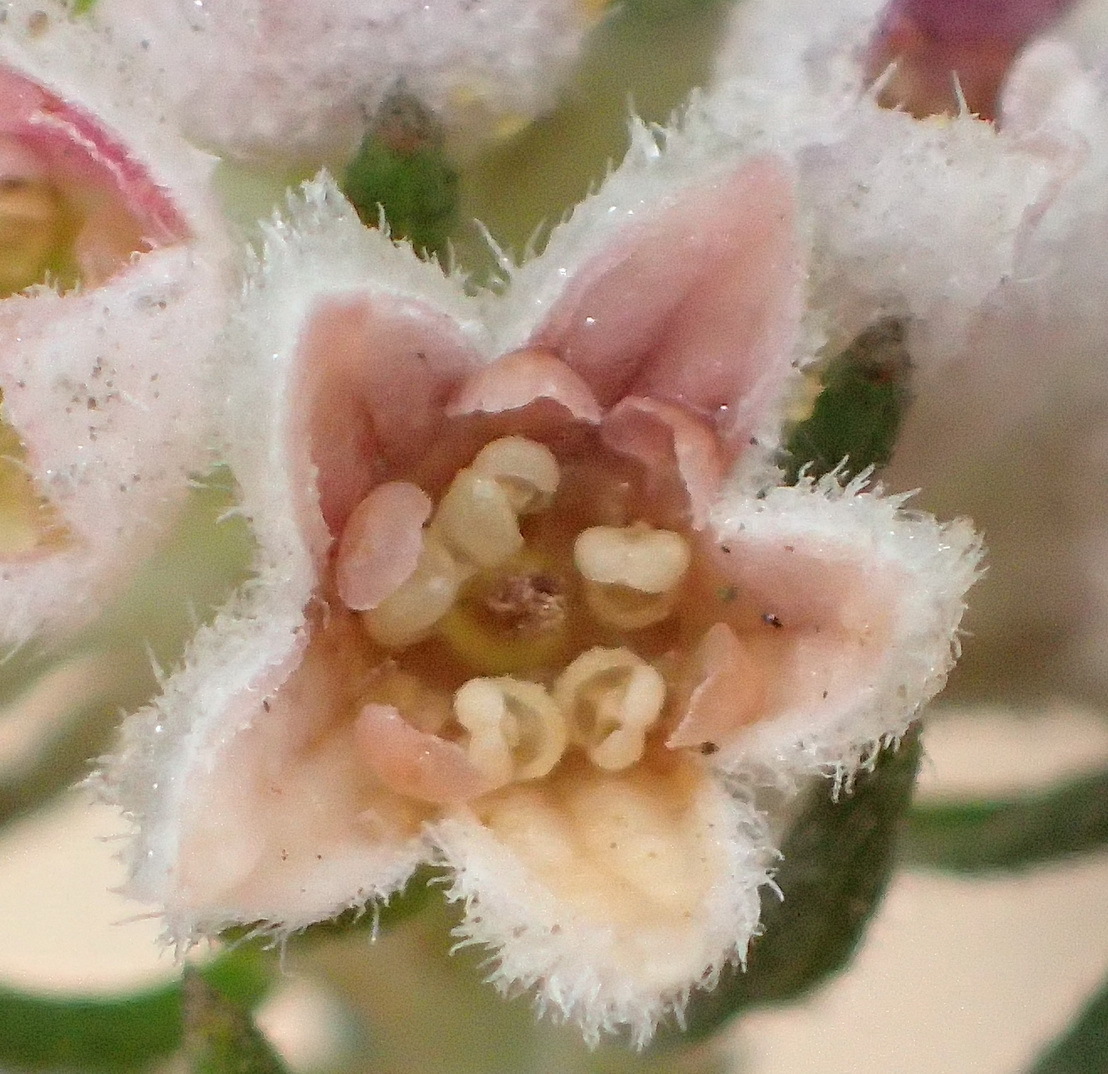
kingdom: Plantae
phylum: Tracheophyta
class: Magnoliopsida
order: Rosales
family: Rhamnaceae
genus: Phylica
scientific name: Phylica purpurea
